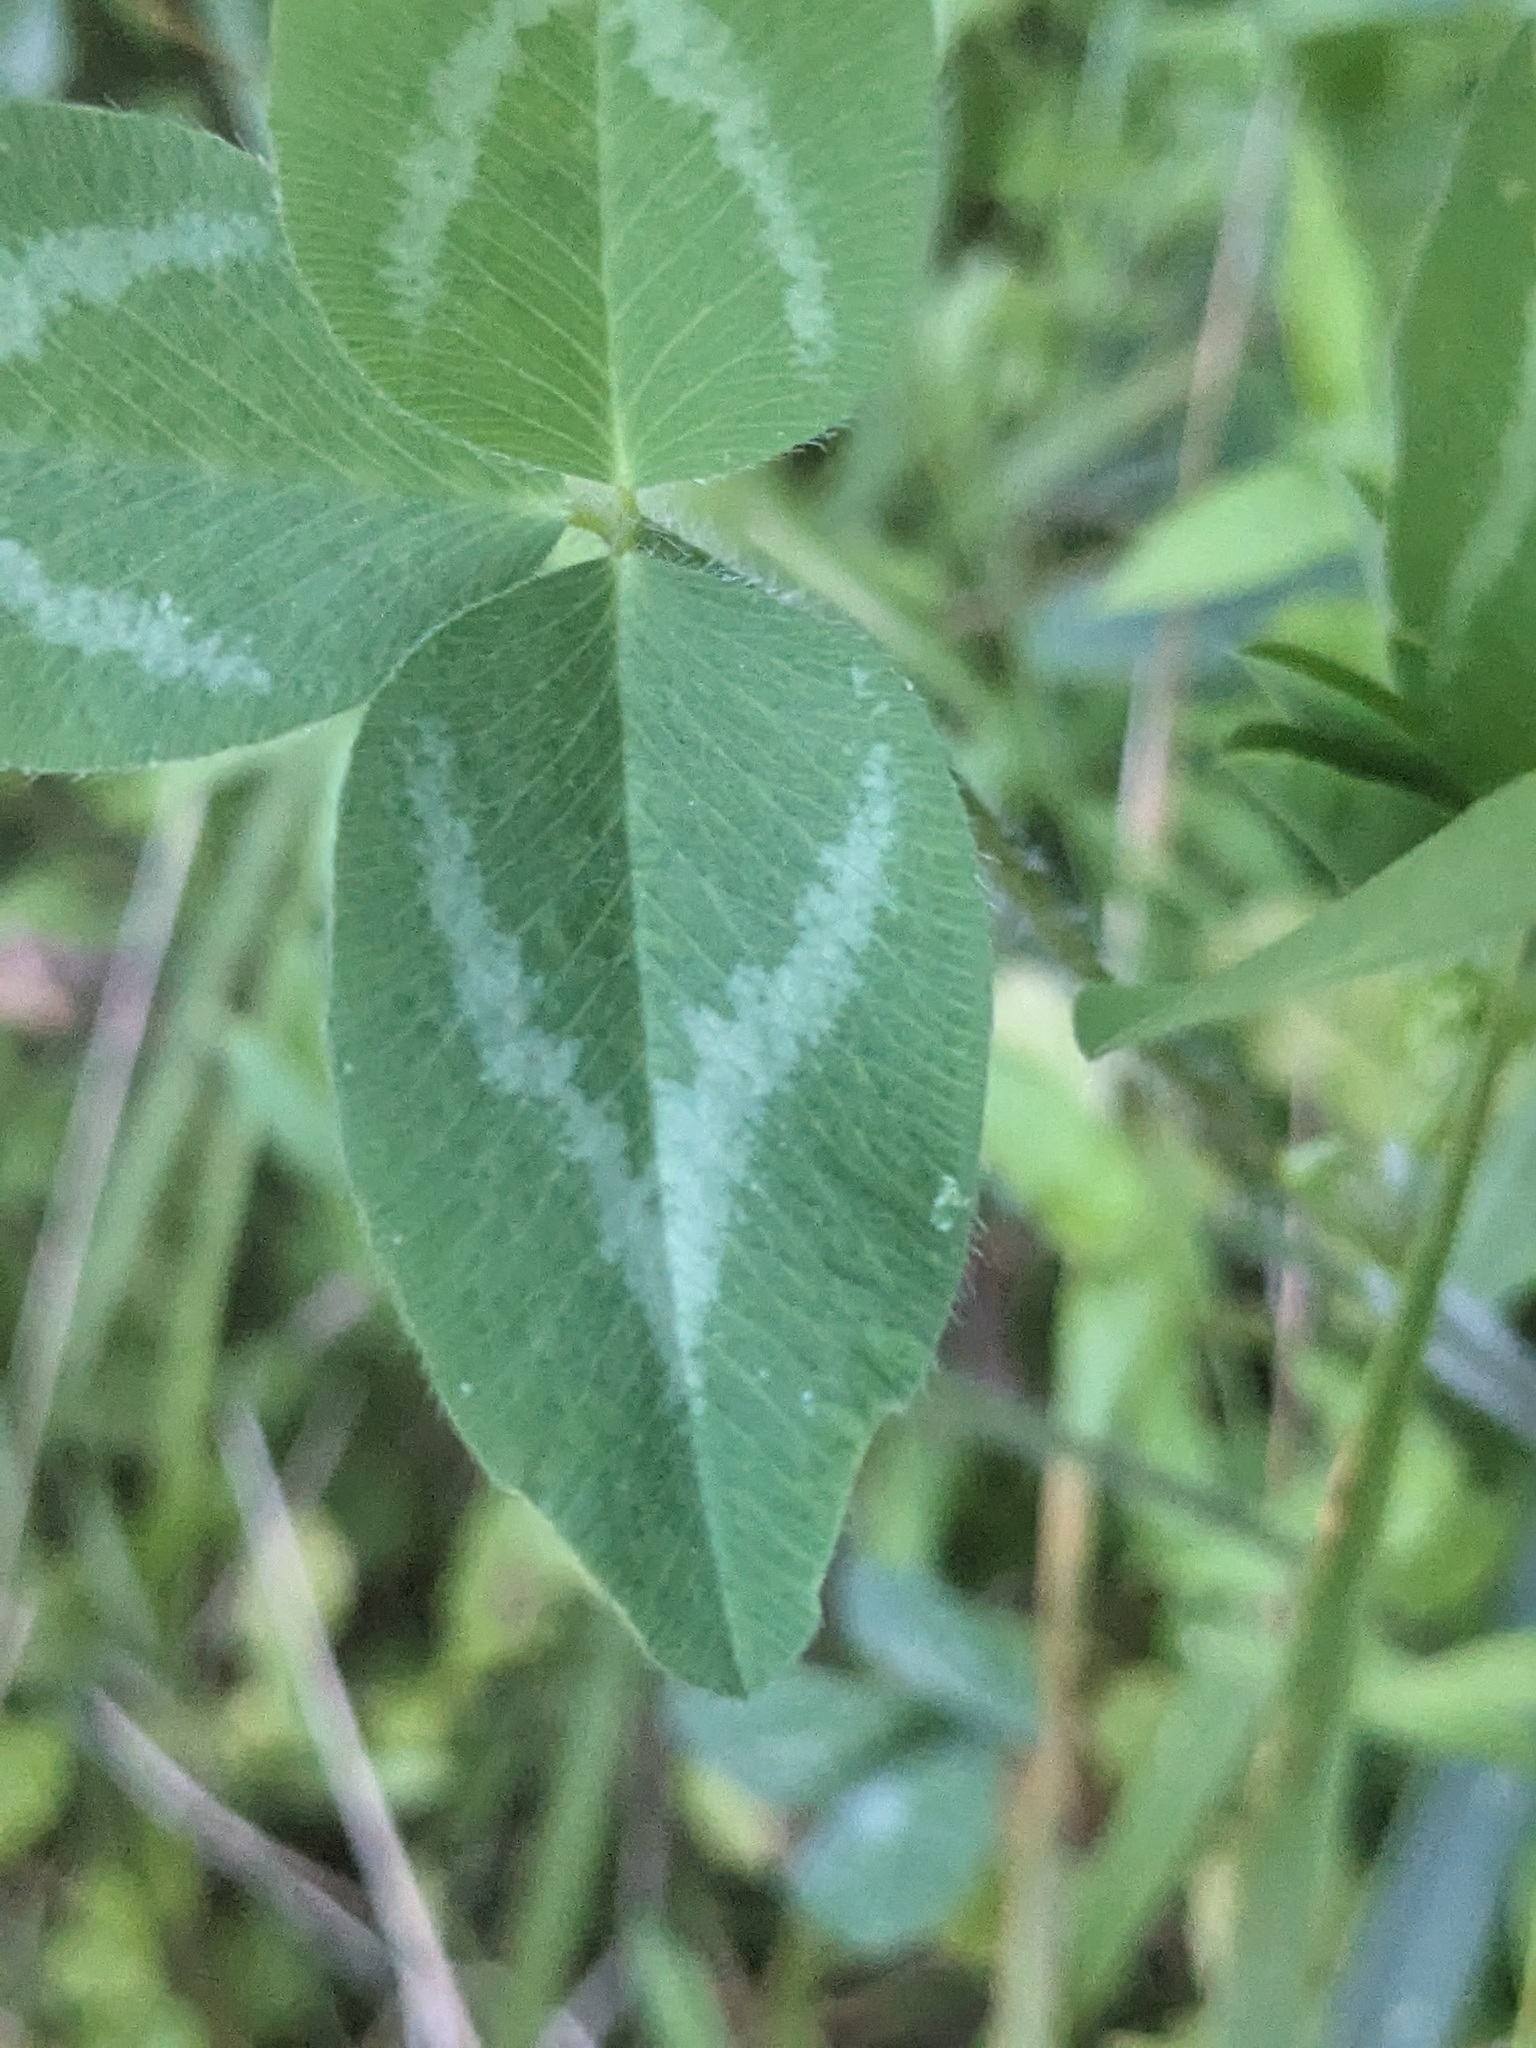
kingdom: Plantae
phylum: Tracheophyta
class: Magnoliopsida
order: Fabales
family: Fabaceae
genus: Trifolium
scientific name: Trifolium pratense
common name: Red clover
